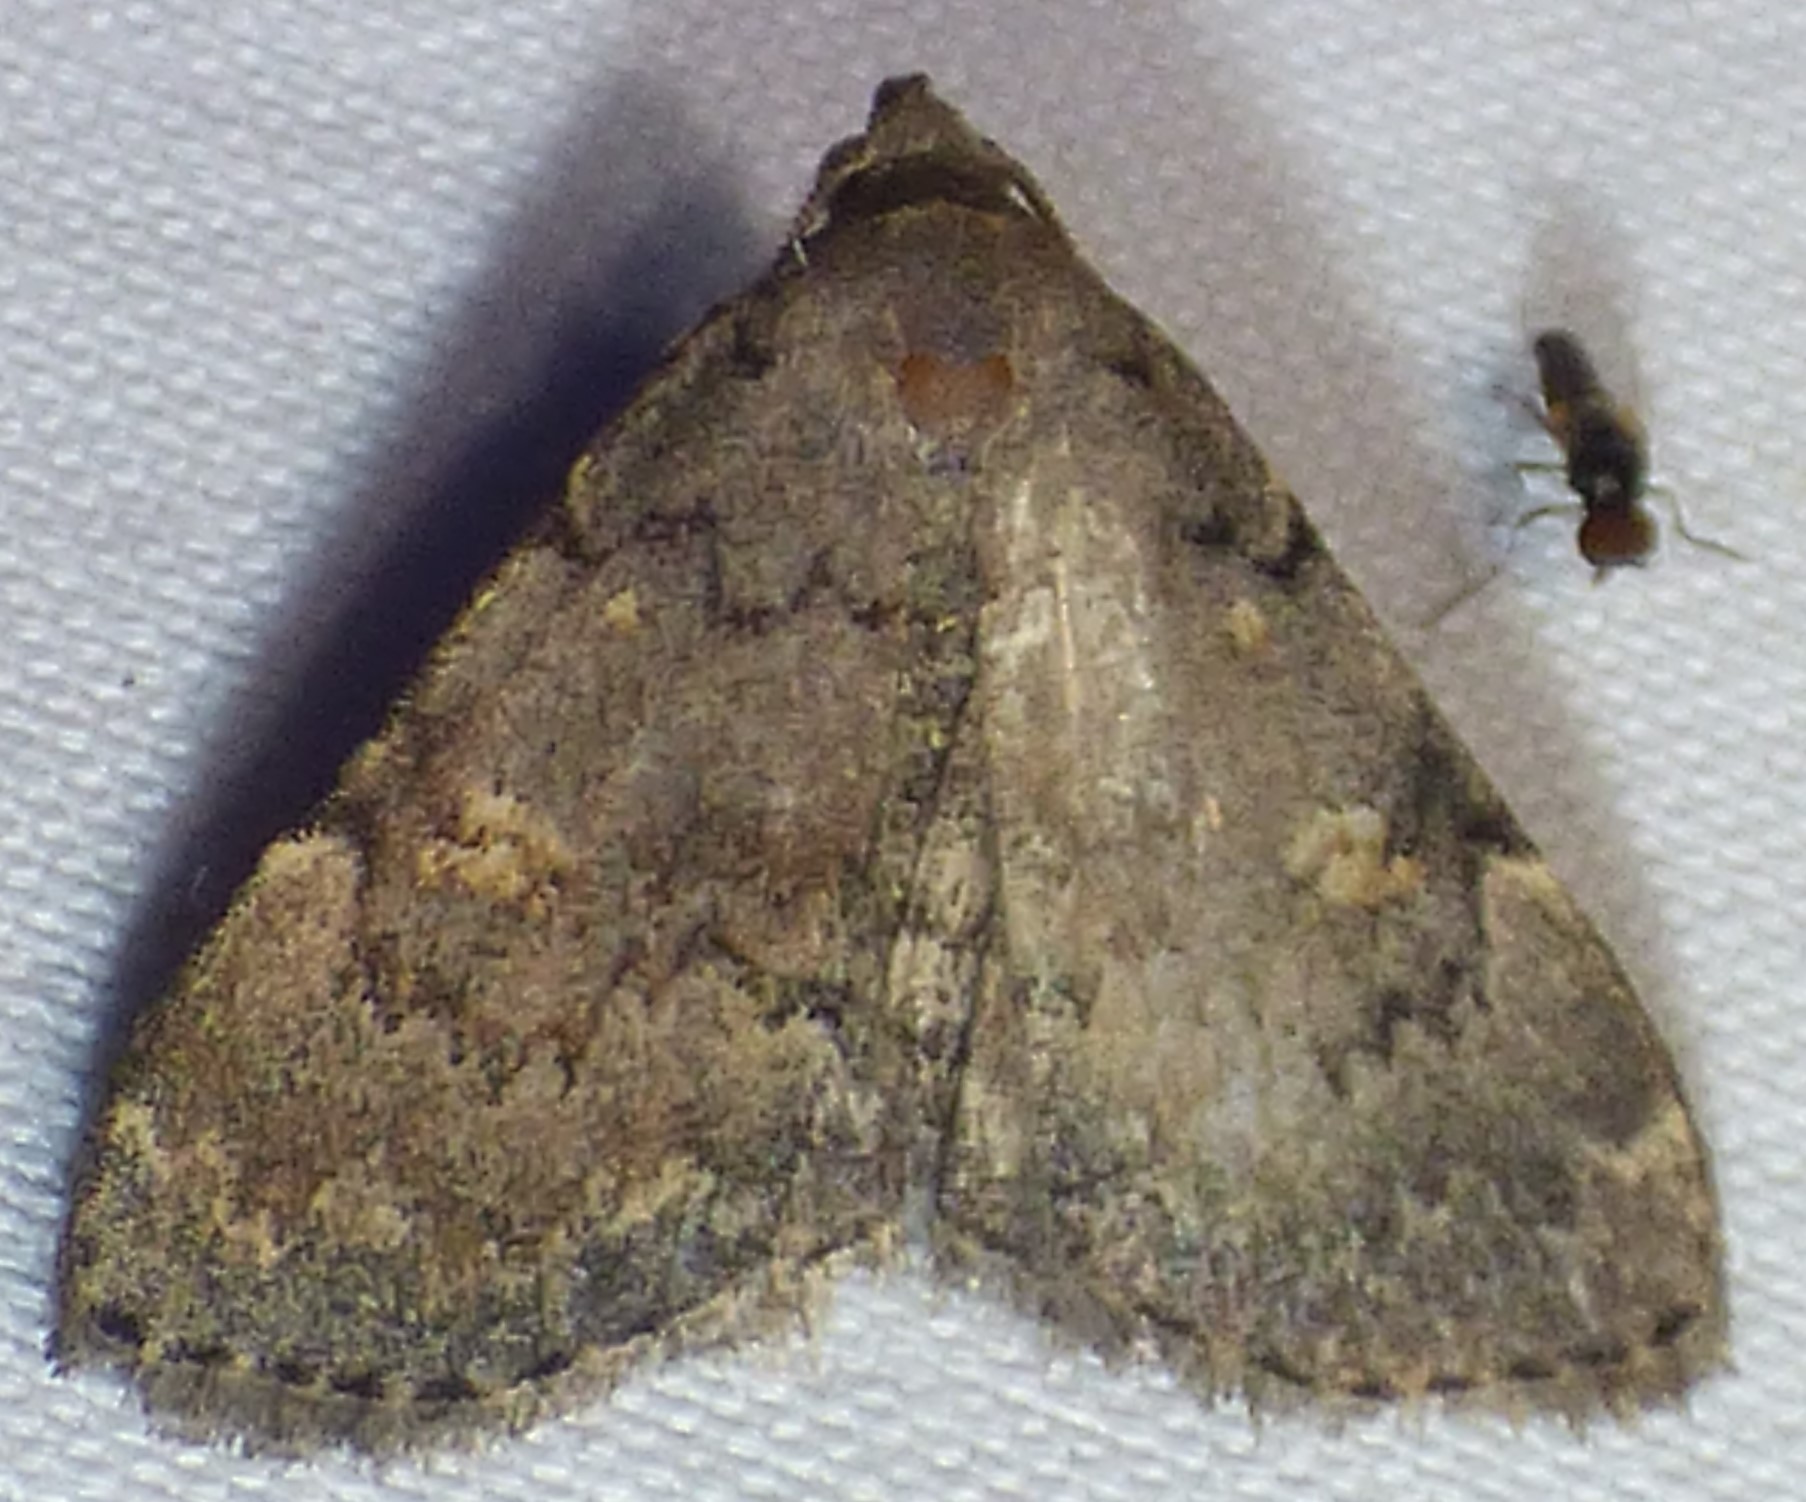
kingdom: Animalia
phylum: Arthropoda
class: Insecta
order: Lepidoptera
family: Erebidae
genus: Idia
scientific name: Idia aemula
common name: Common idia moth
